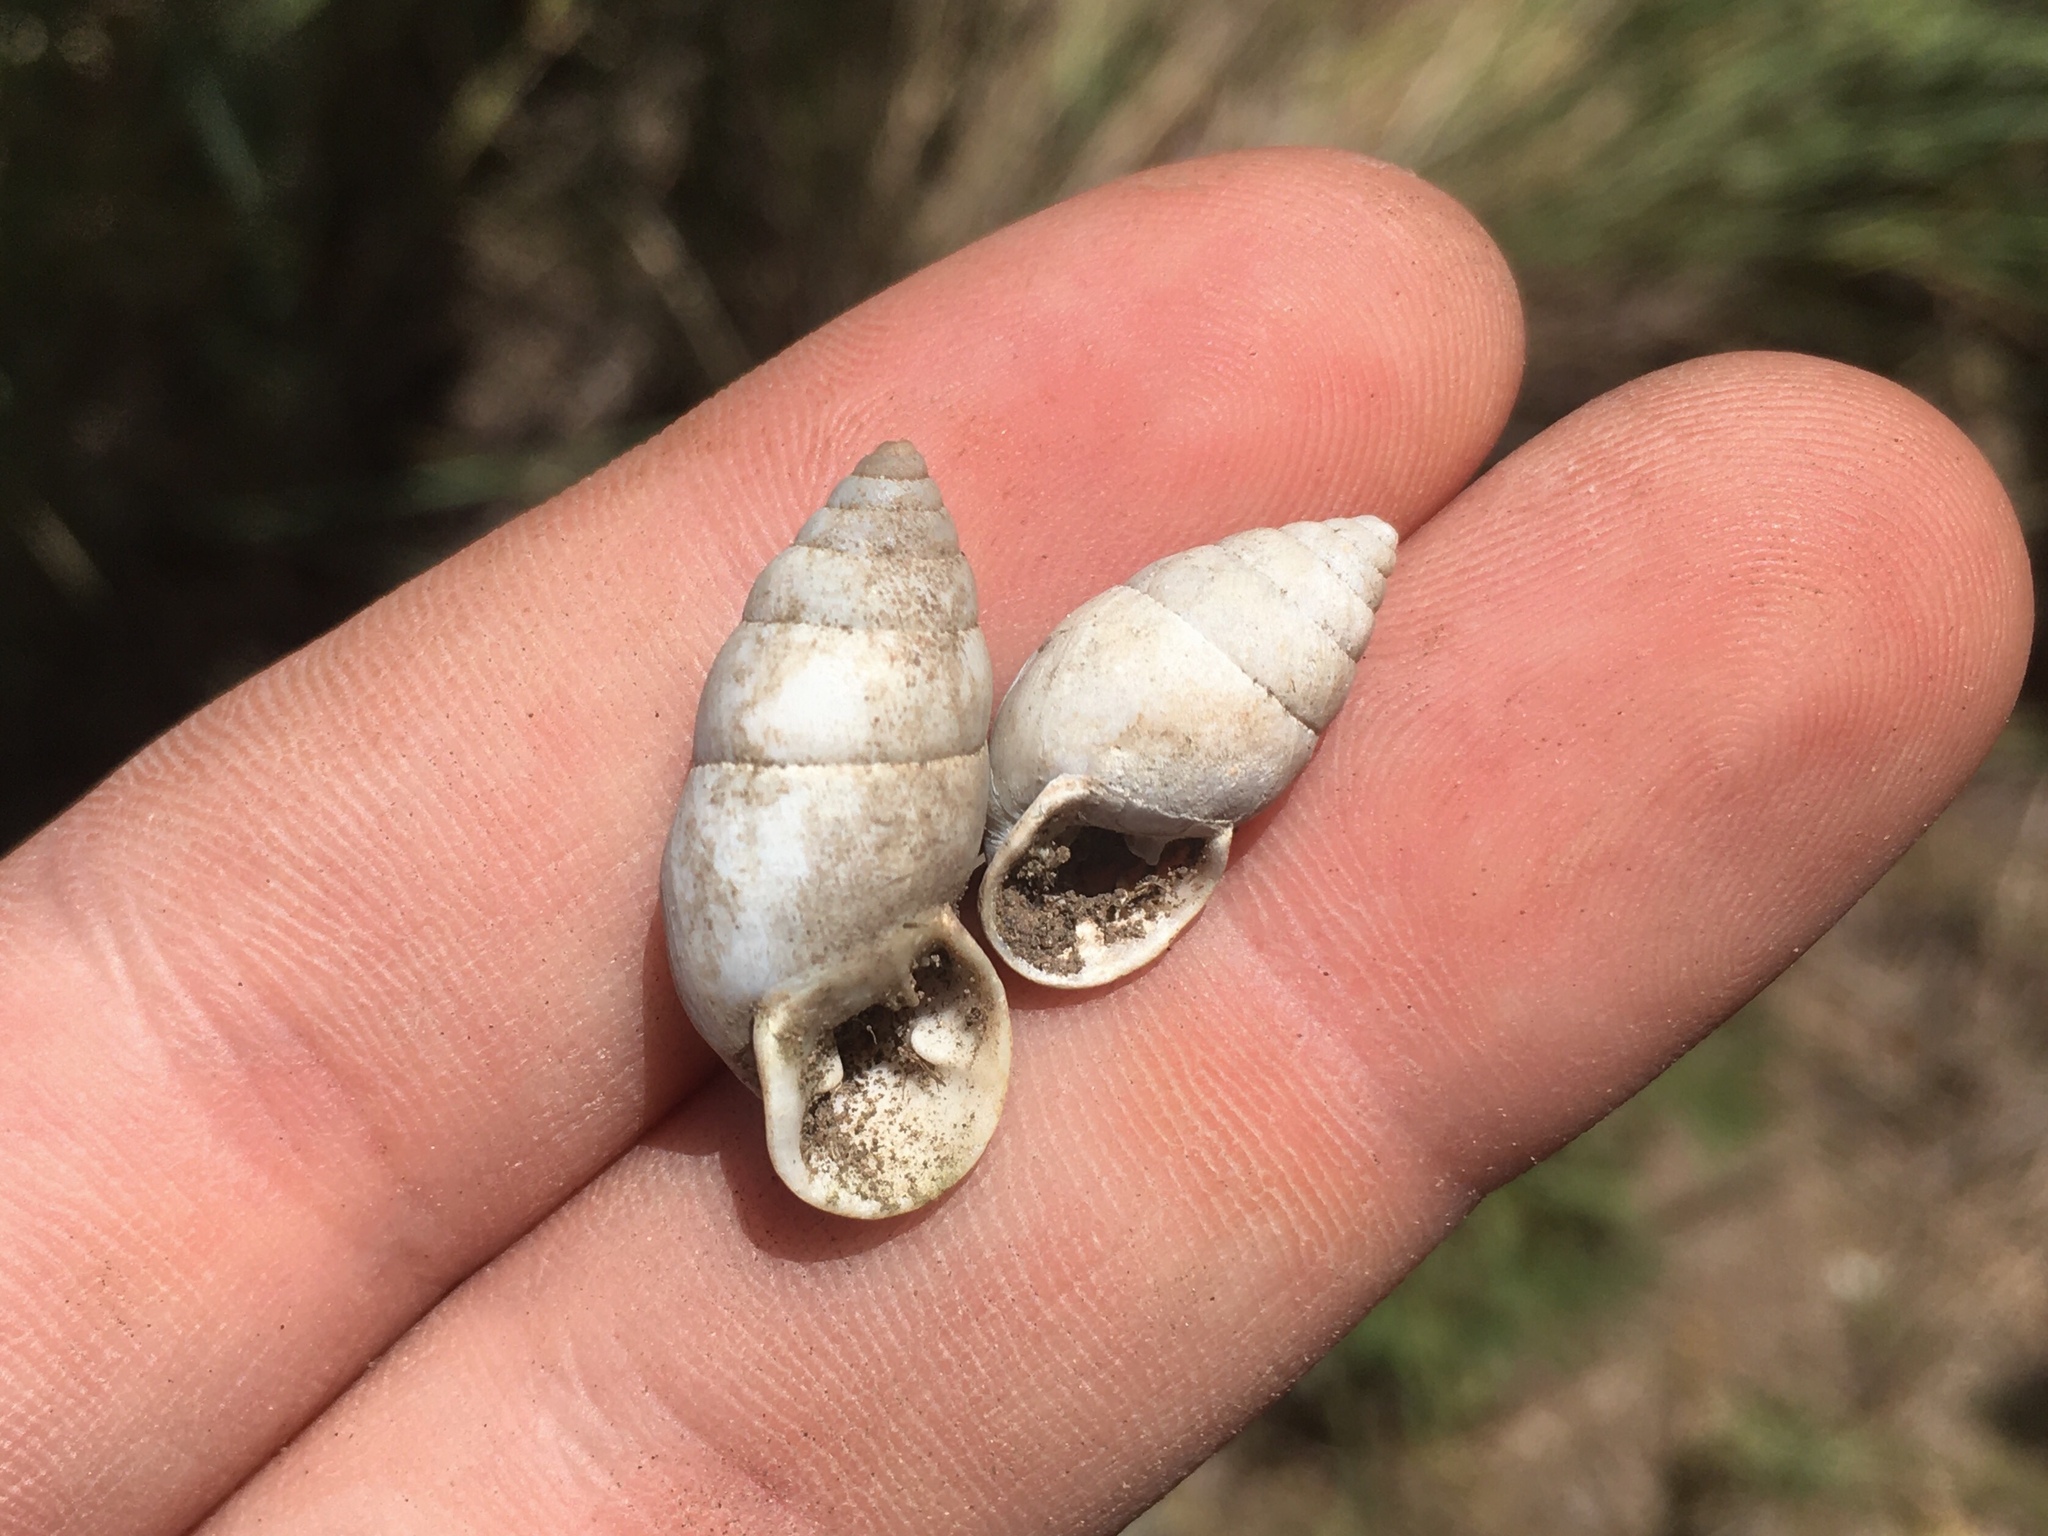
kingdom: Animalia
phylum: Mollusca
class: Gastropoda
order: Stylommatophora
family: Odontostomidae
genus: Plagiodontes
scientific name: Plagiodontes patagonicus
